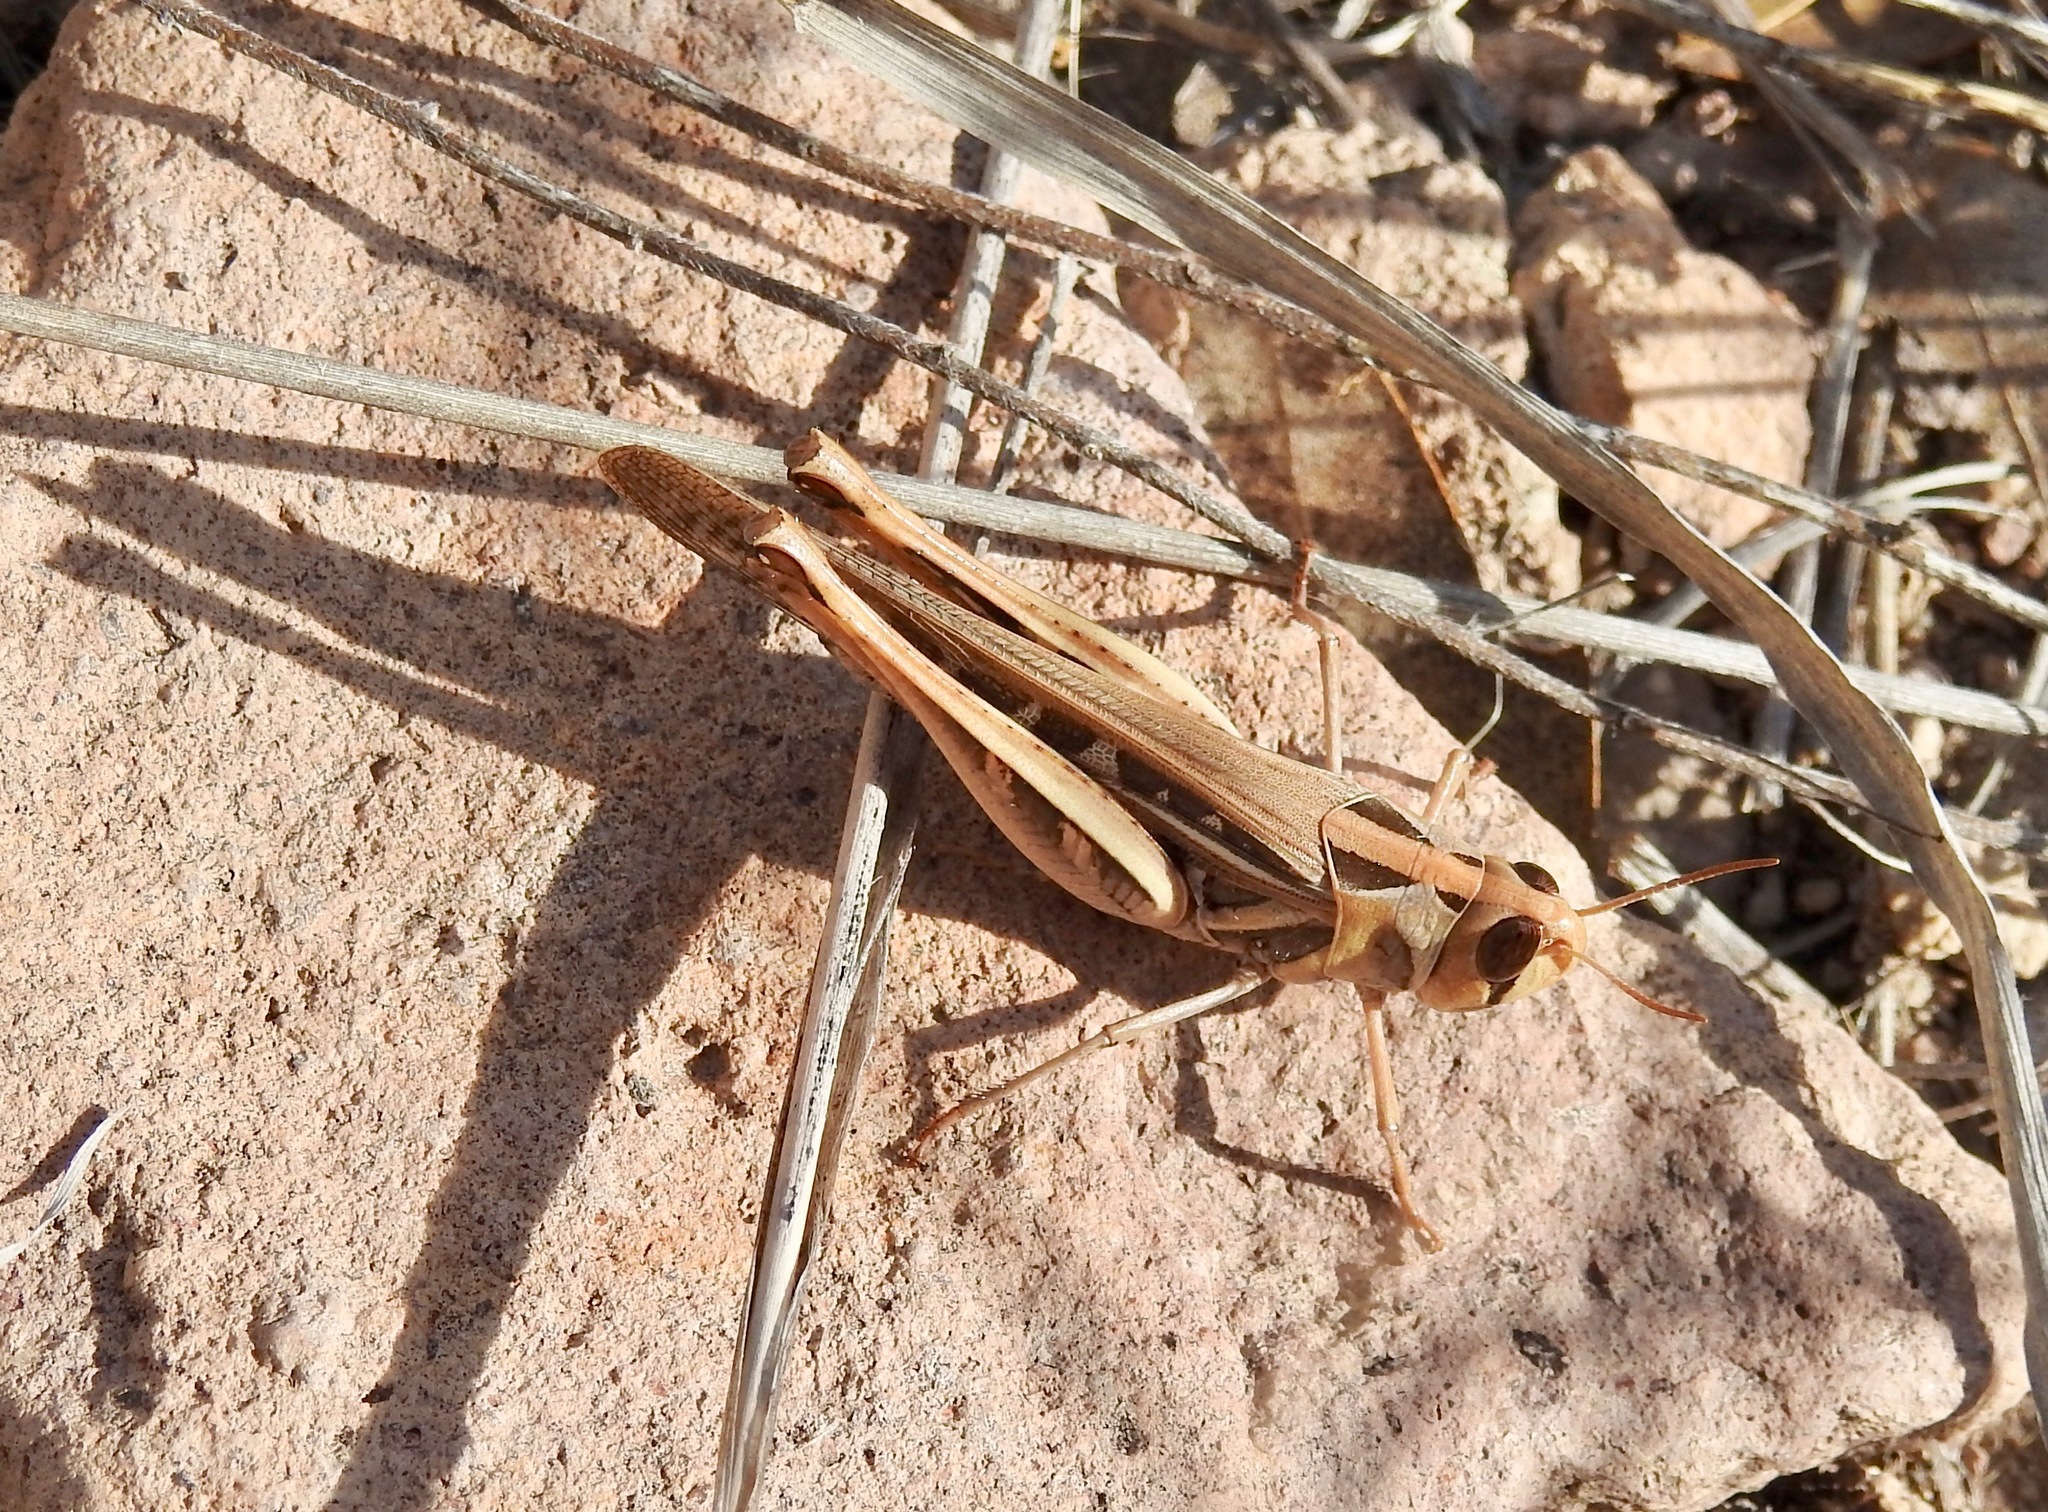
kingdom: Animalia
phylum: Arthropoda
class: Insecta
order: Orthoptera
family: Acrididae
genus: Rhammatocerus
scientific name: Rhammatocerus viatorius
